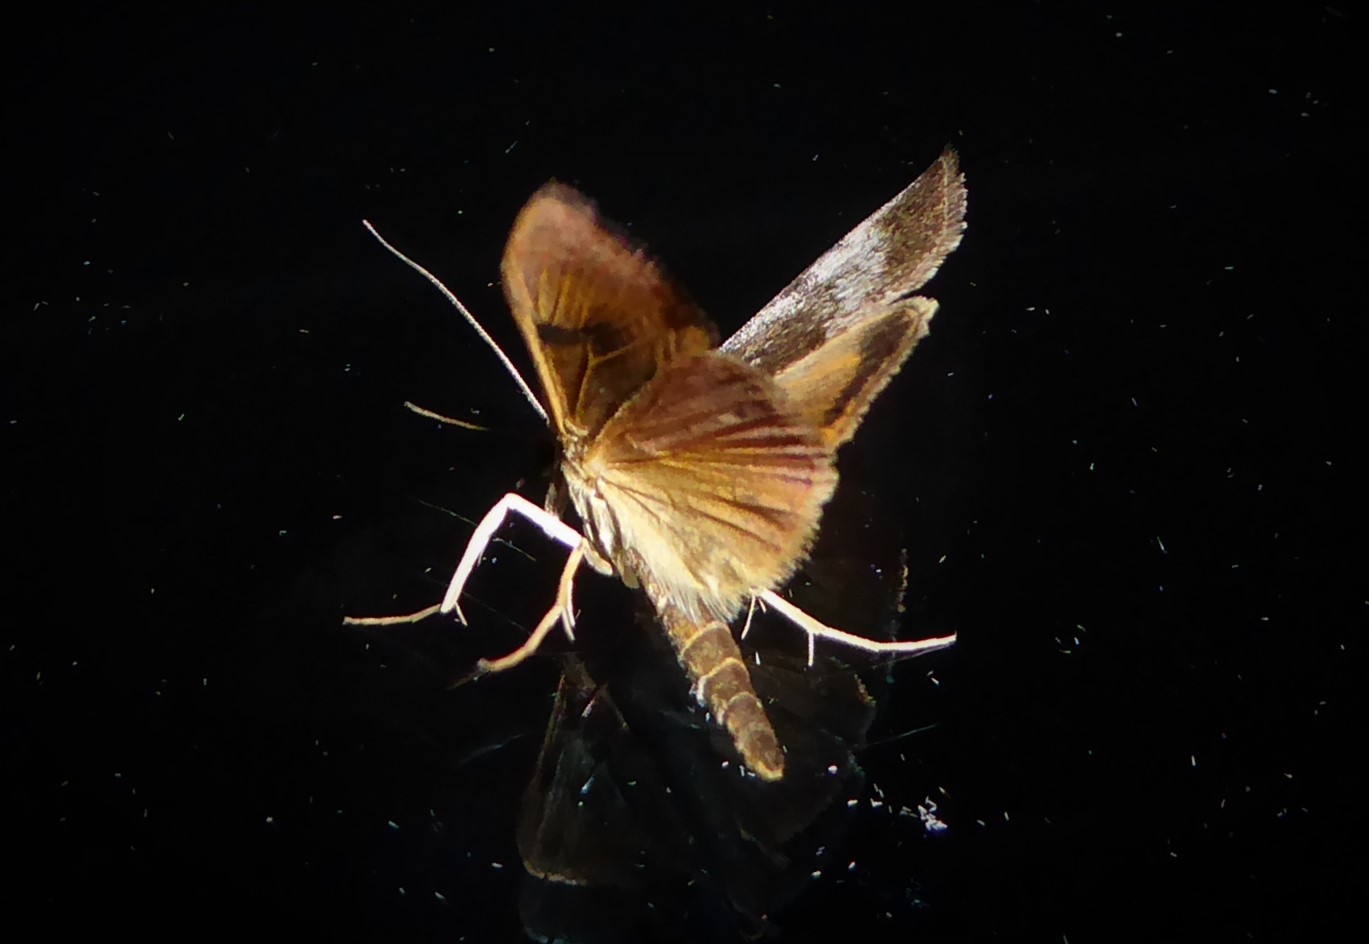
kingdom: Animalia
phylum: Arthropoda
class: Insecta
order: Lepidoptera
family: Crambidae
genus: Uresiphita
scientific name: Uresiphita
